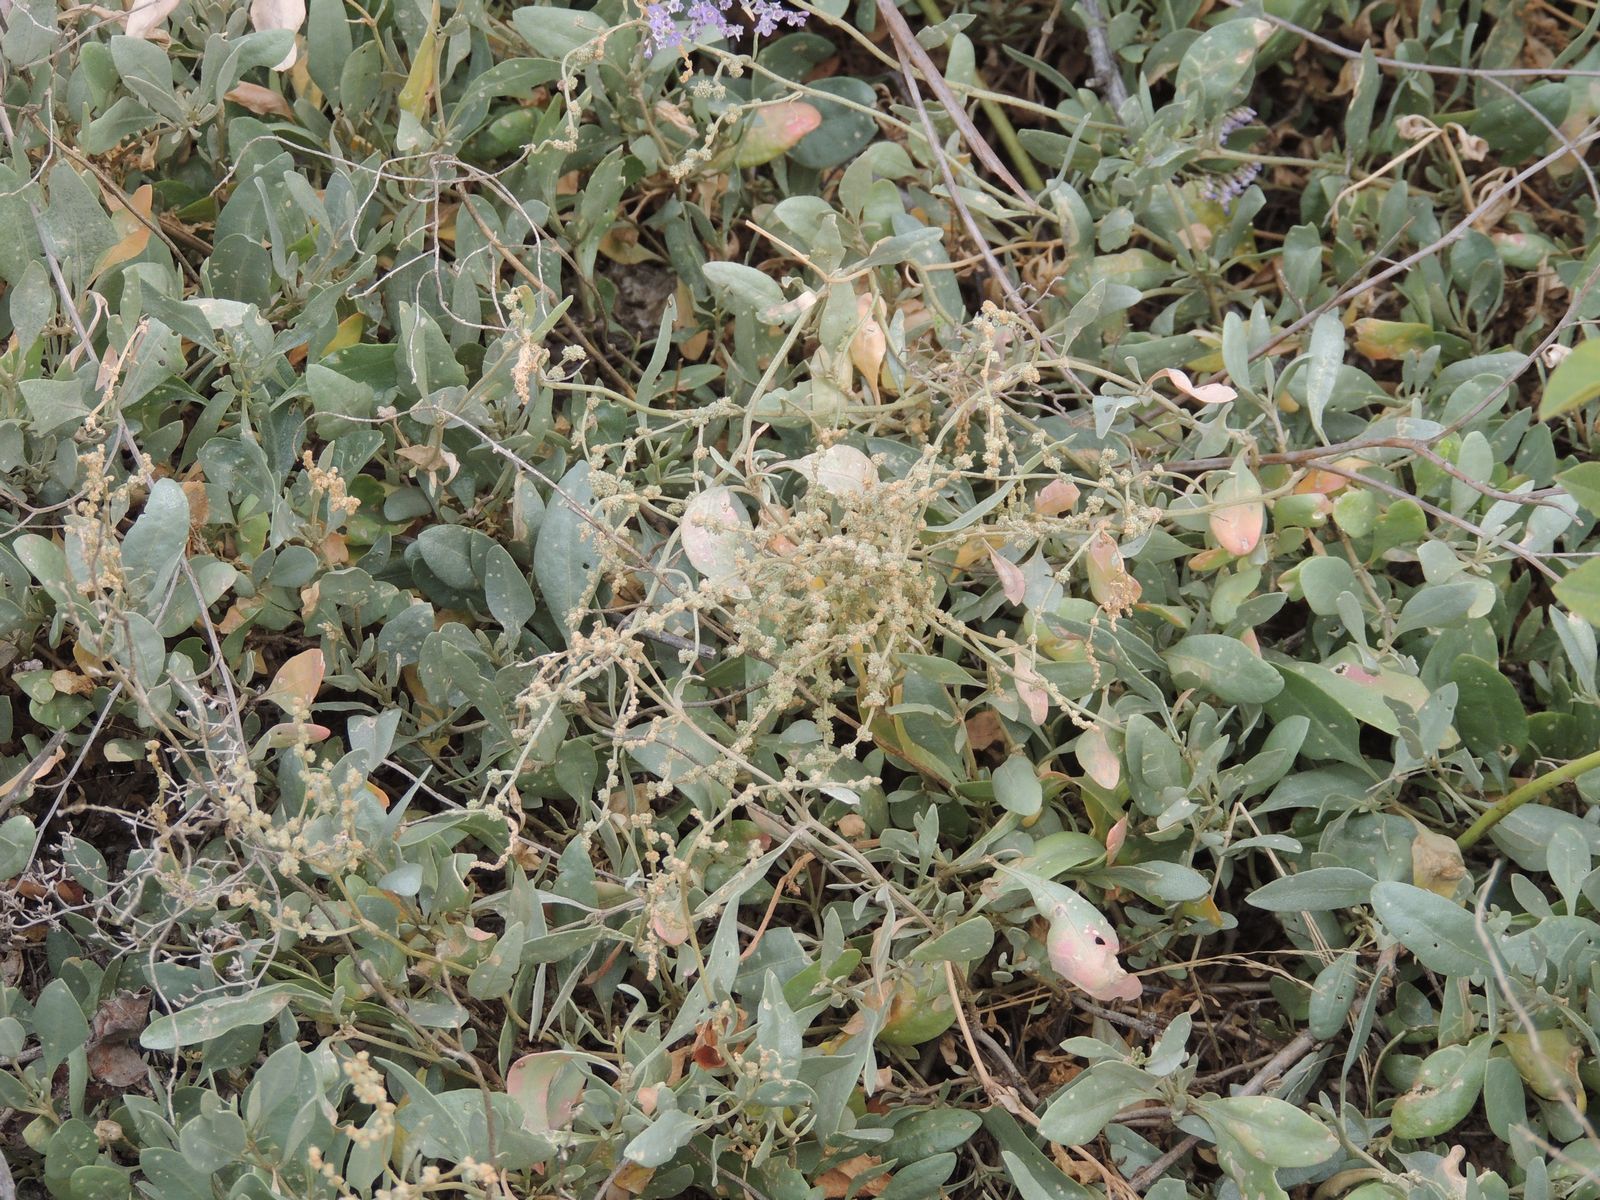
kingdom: Plantae
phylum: Tracheophyta
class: Magnoliopsida
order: Caryophyllales
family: Amaranthaceae
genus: Halimione
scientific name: Halimione verrucifera
